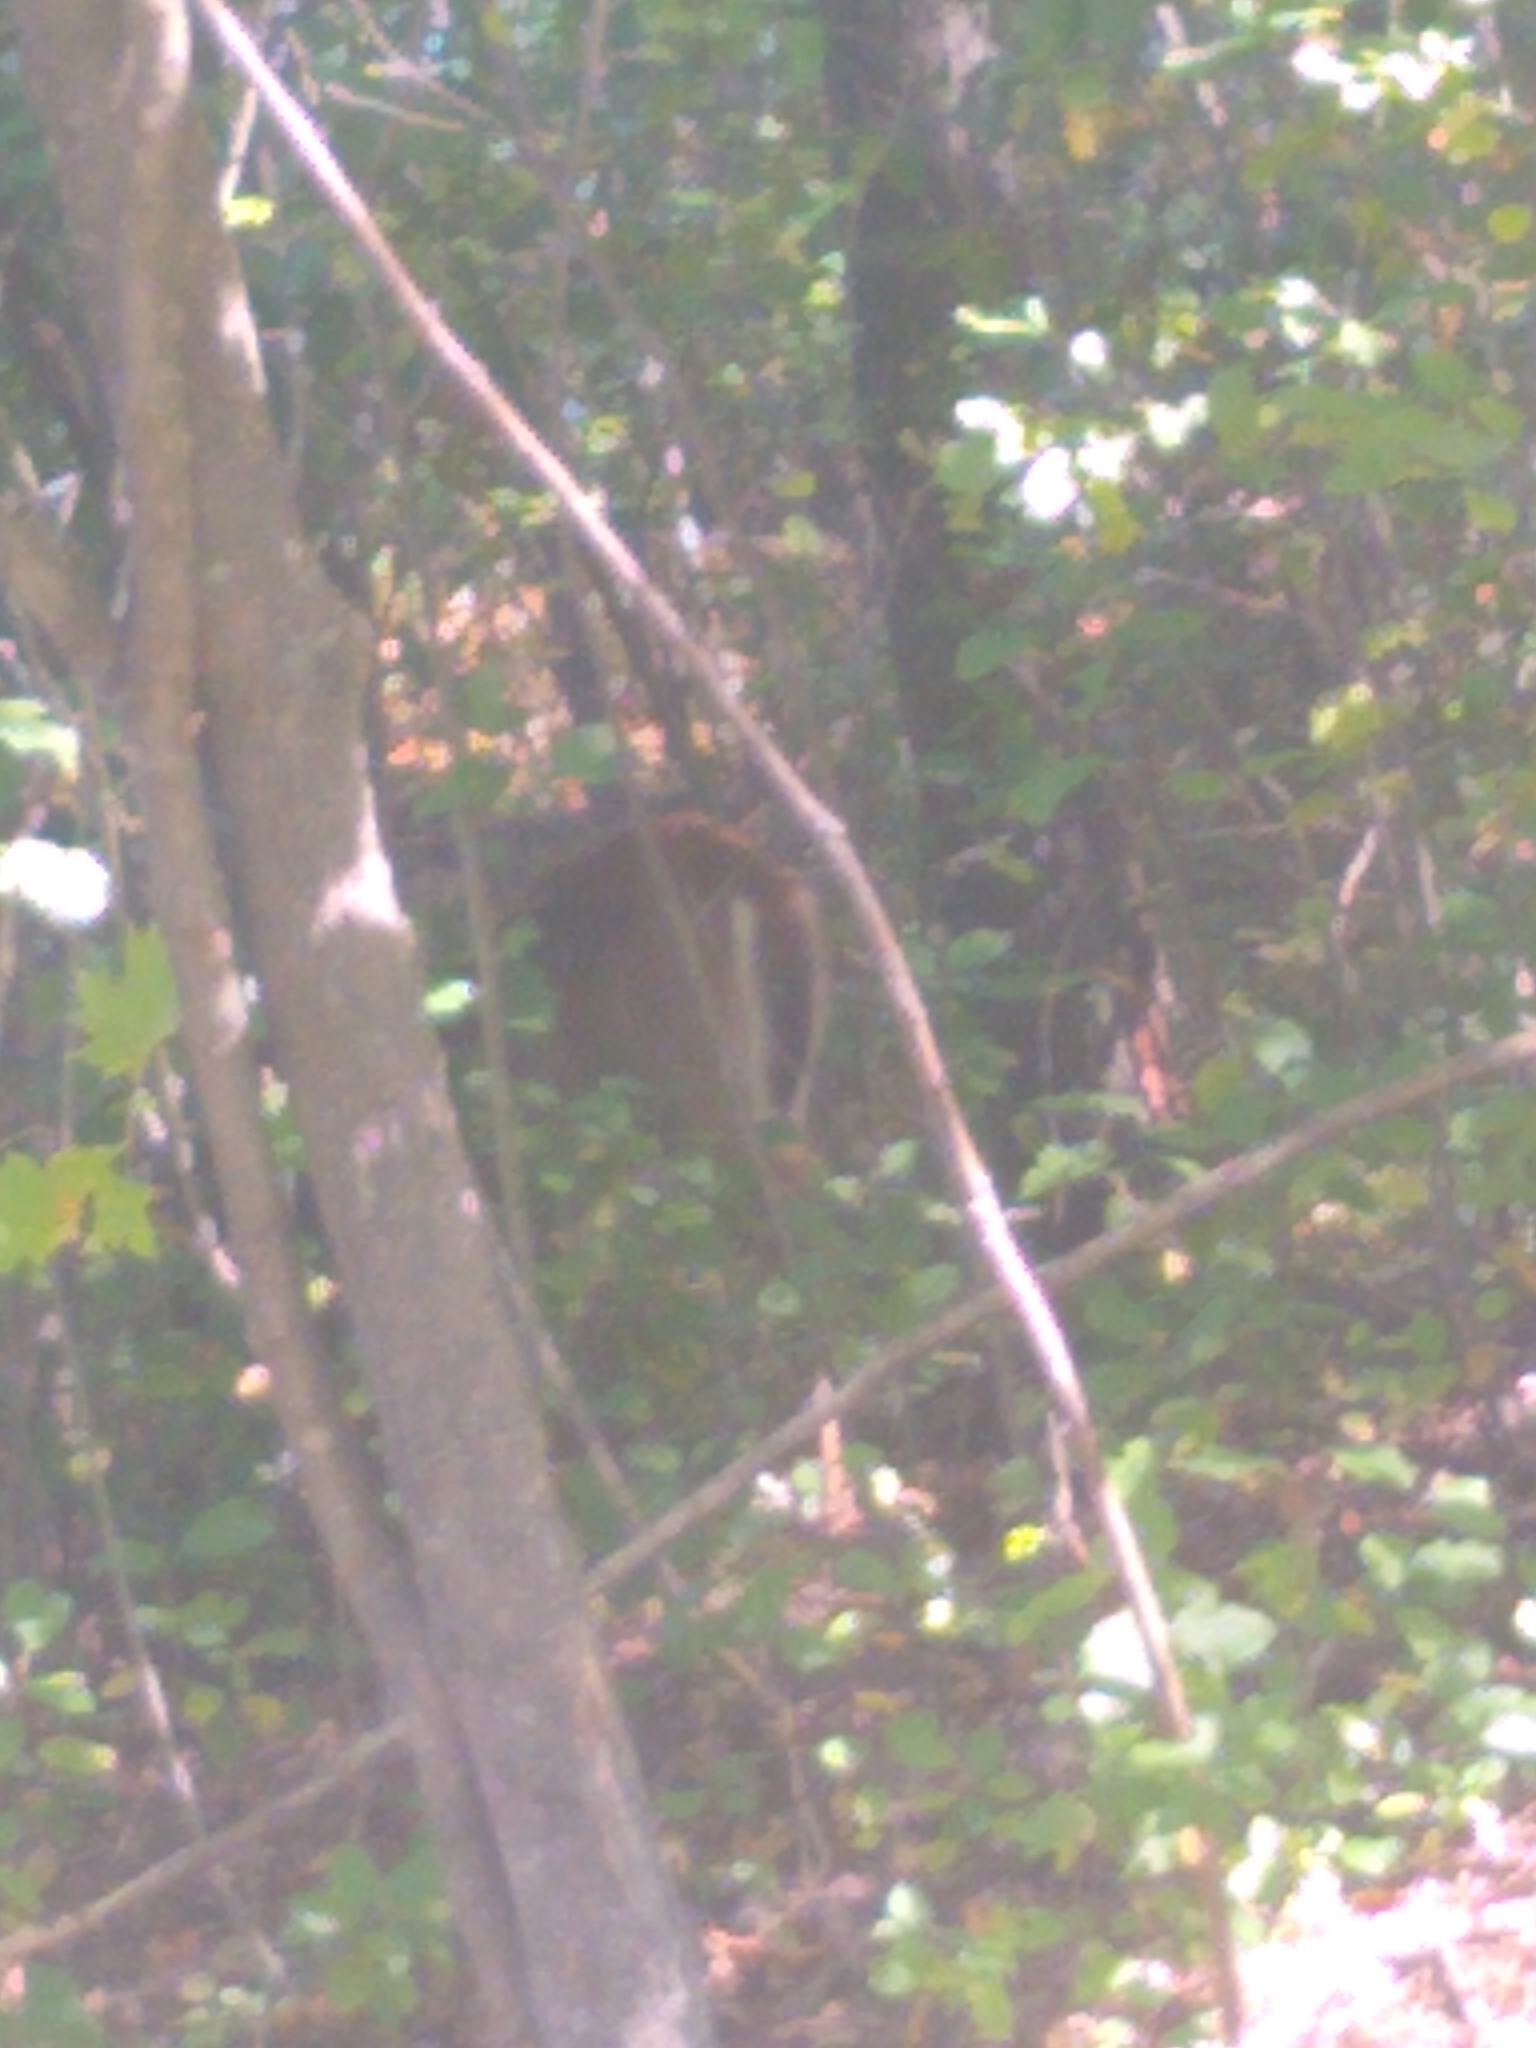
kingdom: Animalia
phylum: Chordata
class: Mammalia
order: Artiodactyla
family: Cervidae
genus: Odocoileus
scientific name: Odocoileus virginianus
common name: White-tailed deer
